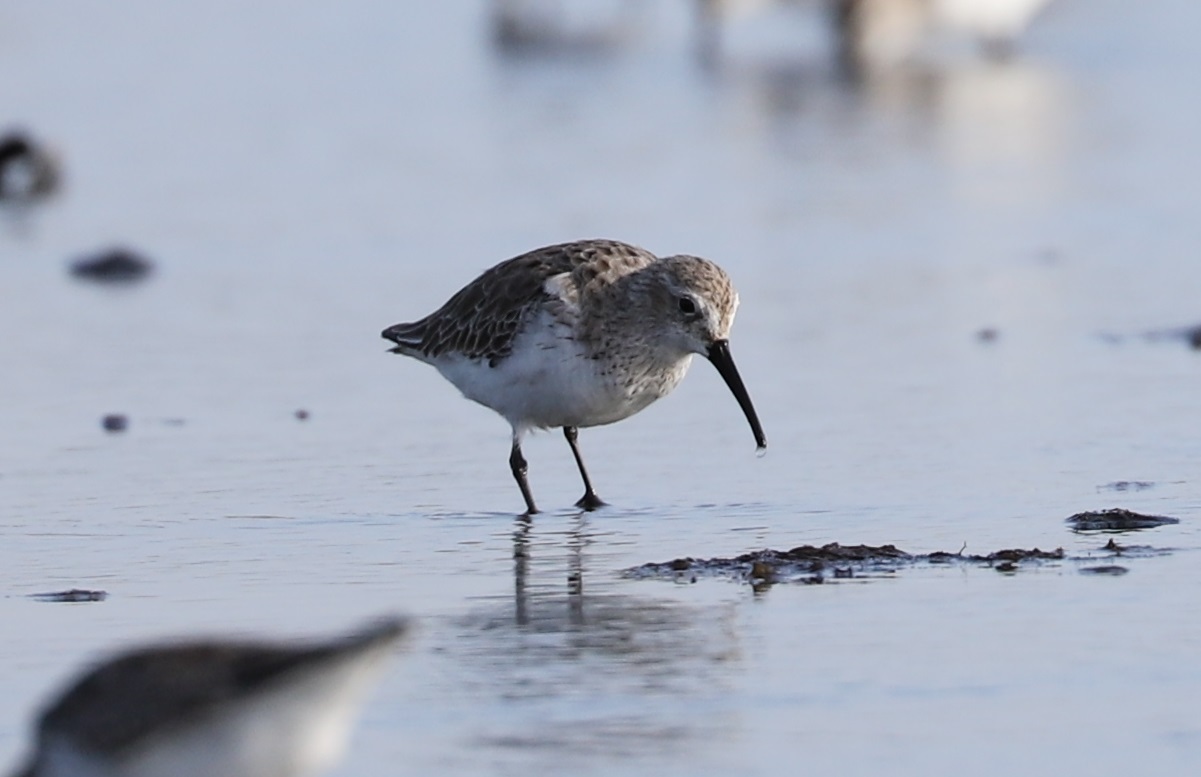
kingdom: Animalia
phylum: Chordata
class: Aves
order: Charadriiformes
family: Scolopacidae
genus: Calidris
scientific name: Calidris alpina
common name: Dunlin
